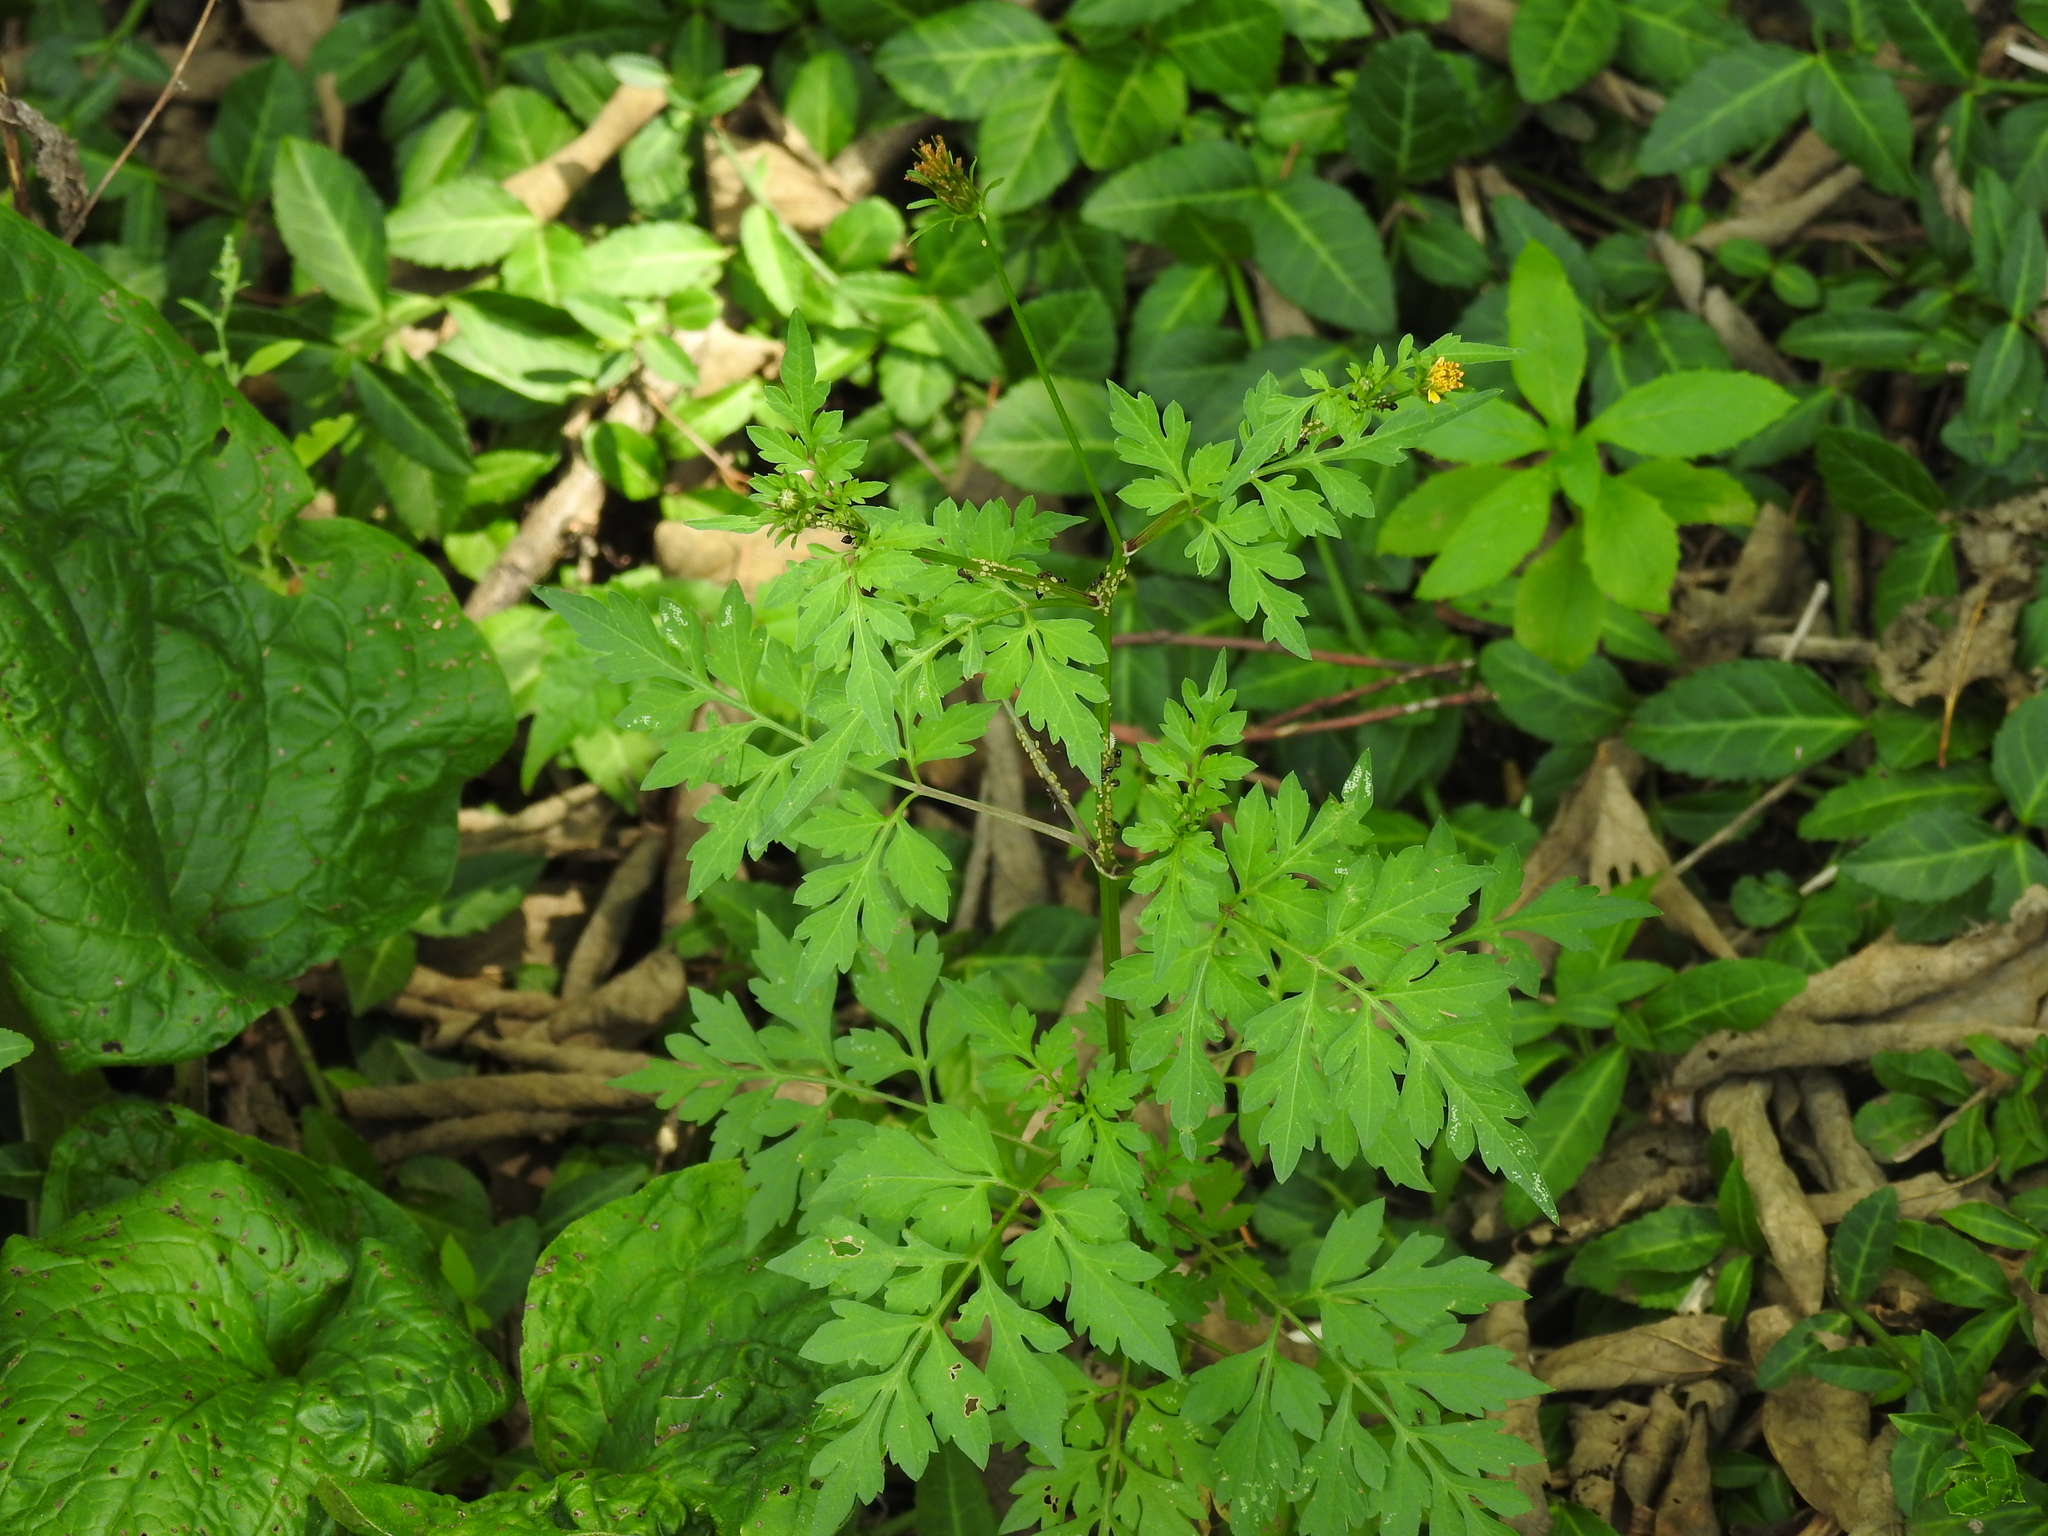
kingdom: Plantae
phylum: Tracheophyta
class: Magnoliopsida
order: Asterales
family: Asteraceae
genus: Bidens
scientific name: Bidens bipinnata
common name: Spanish-needles
